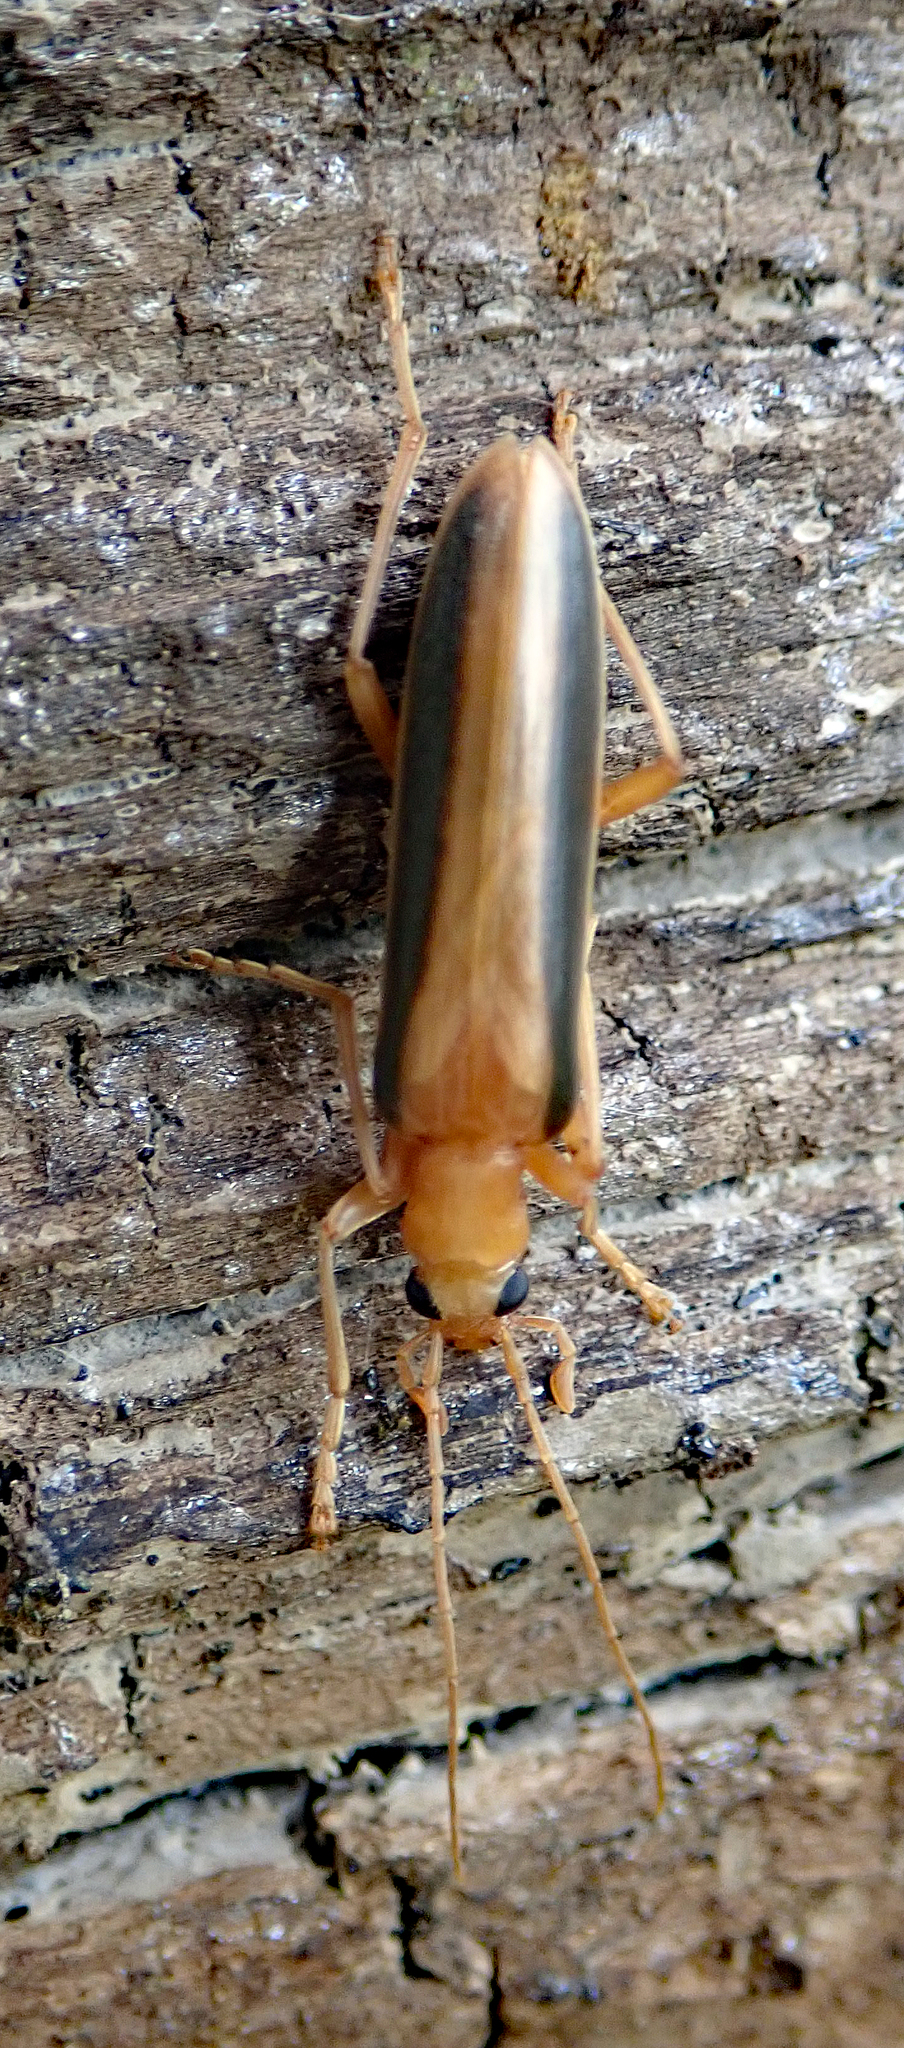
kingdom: Animalia
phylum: Arthropoda
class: Insecta
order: Coleoptera
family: Oedemeridae
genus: Parisopalpus
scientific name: Parisopalpus
